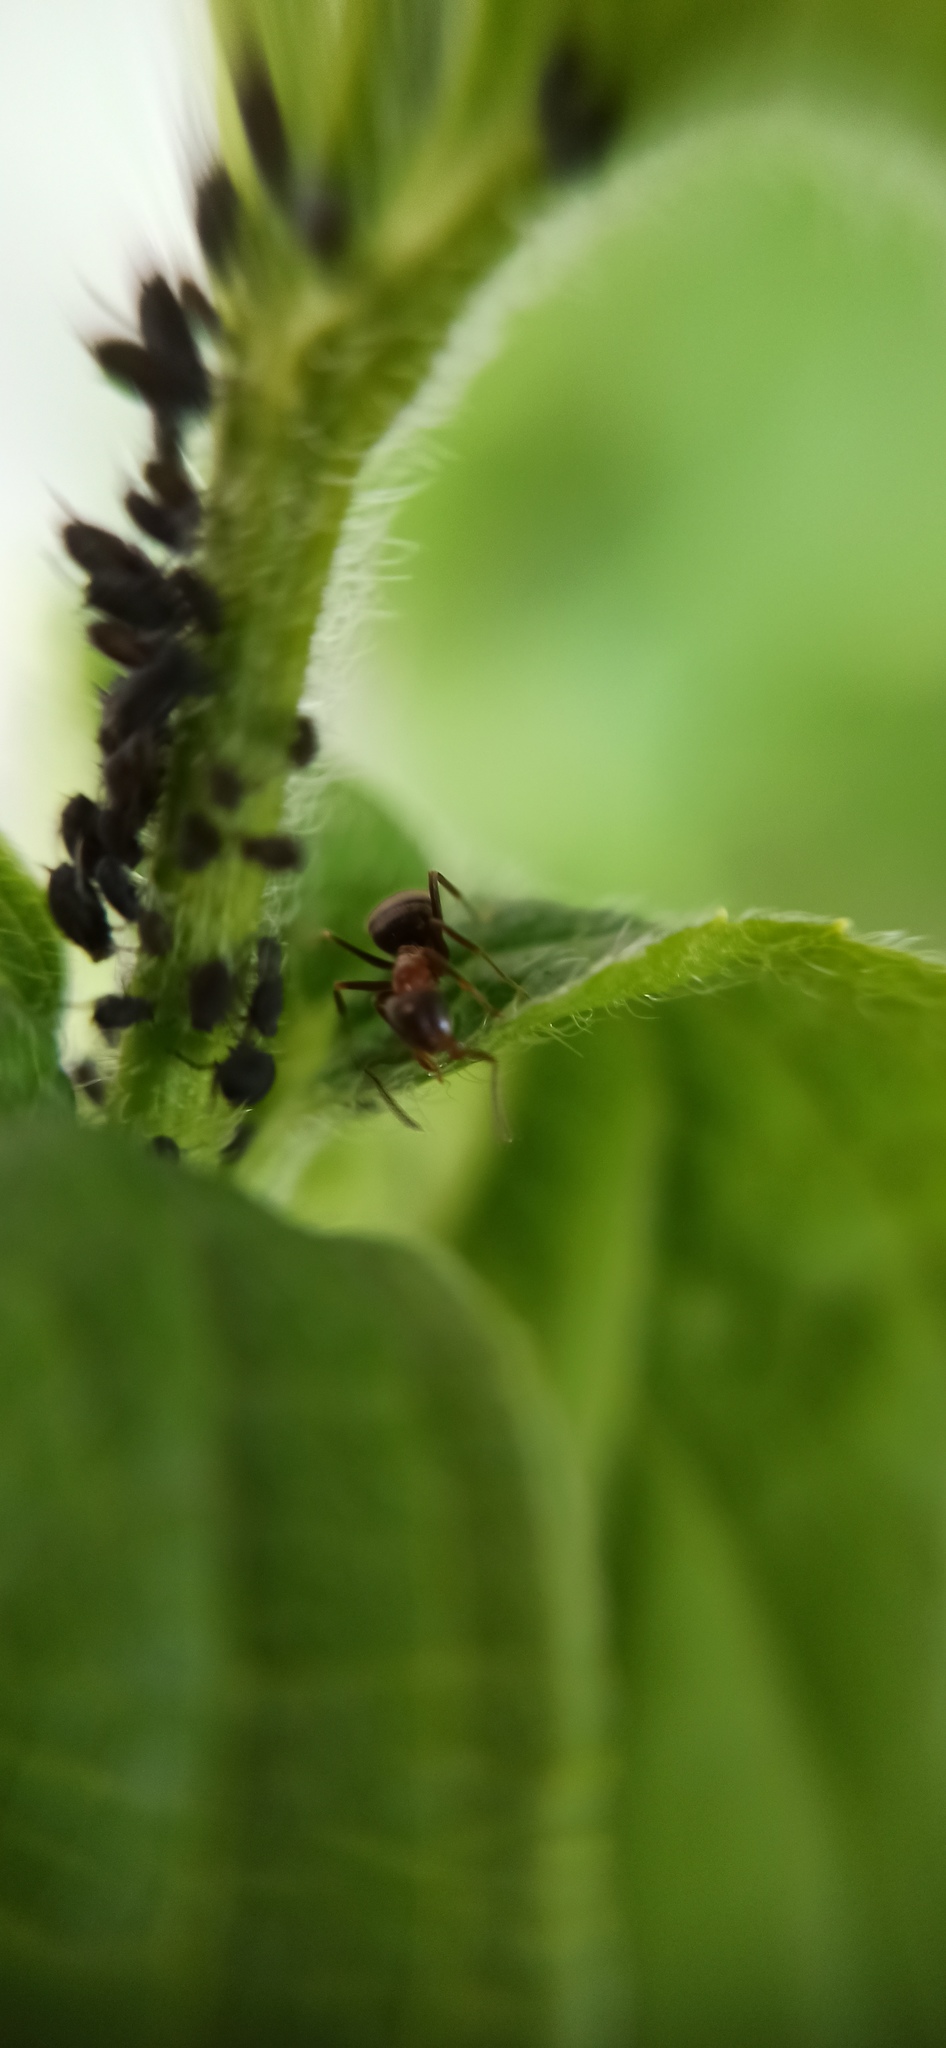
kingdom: Animalia
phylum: Arthropoda
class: Insecta
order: Hymenoptera
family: Formicidae
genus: Lasius
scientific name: Lasius emarginatus
